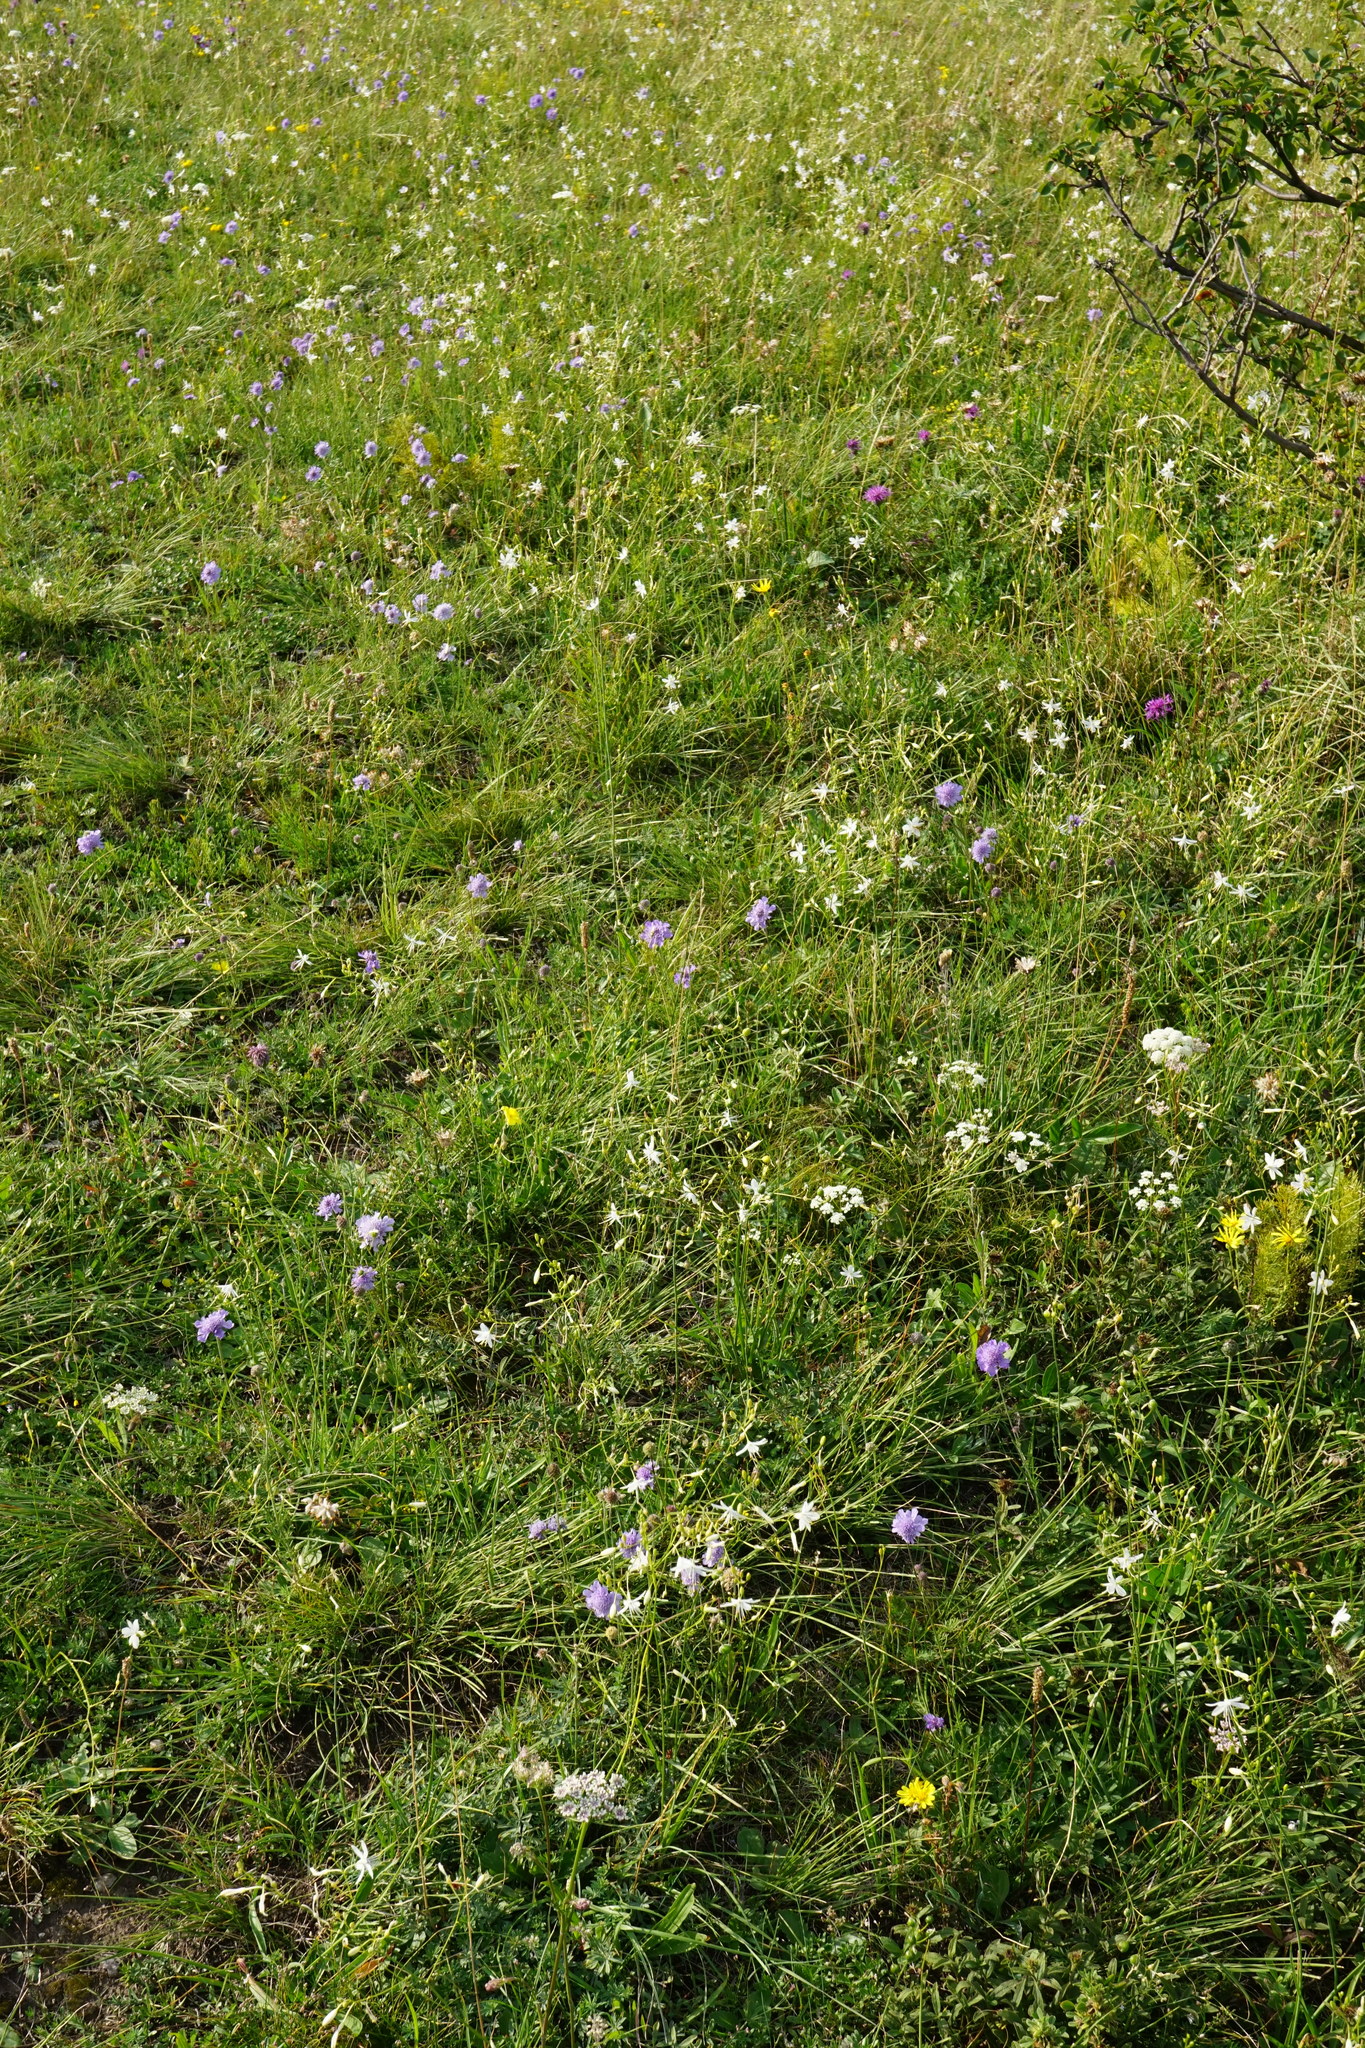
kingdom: Plantae
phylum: Tracheophyta
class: Liliopsida
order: Asparagales
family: Asparagaceae
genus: Anthericum
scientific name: Anthericum ramosum
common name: Branched st. bernard's-lily
